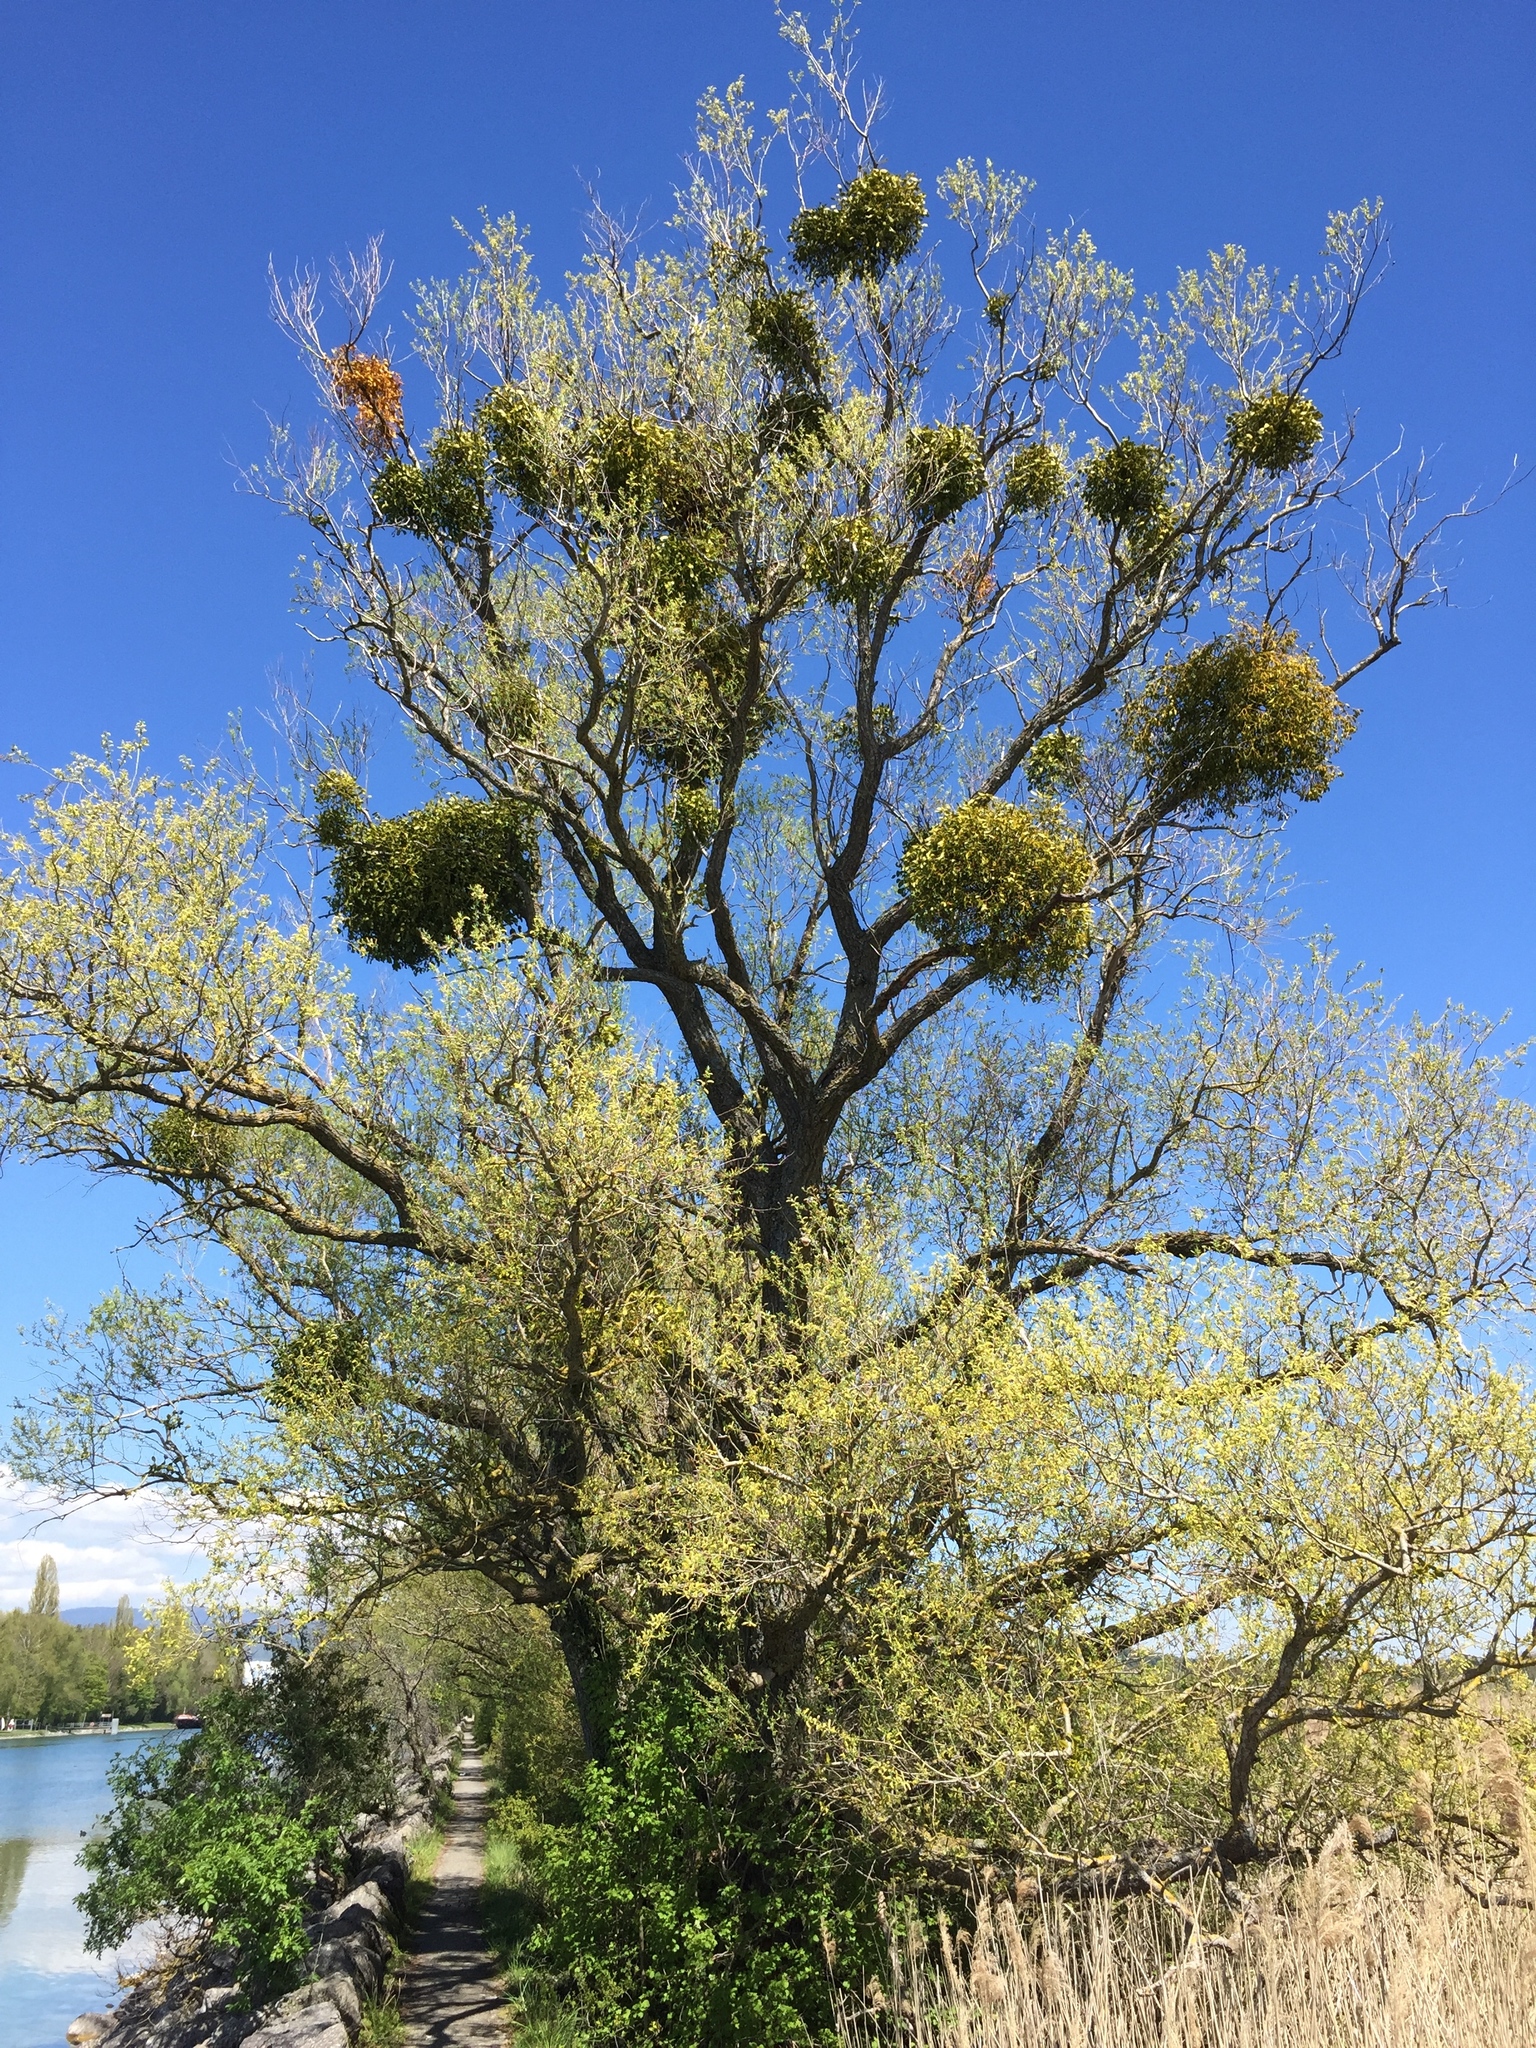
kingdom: Plantae
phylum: Tracheophyta
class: Magnoliopsida
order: Santalales
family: Viscaceae
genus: Viscum
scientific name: Viscum album
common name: Mistletoe
